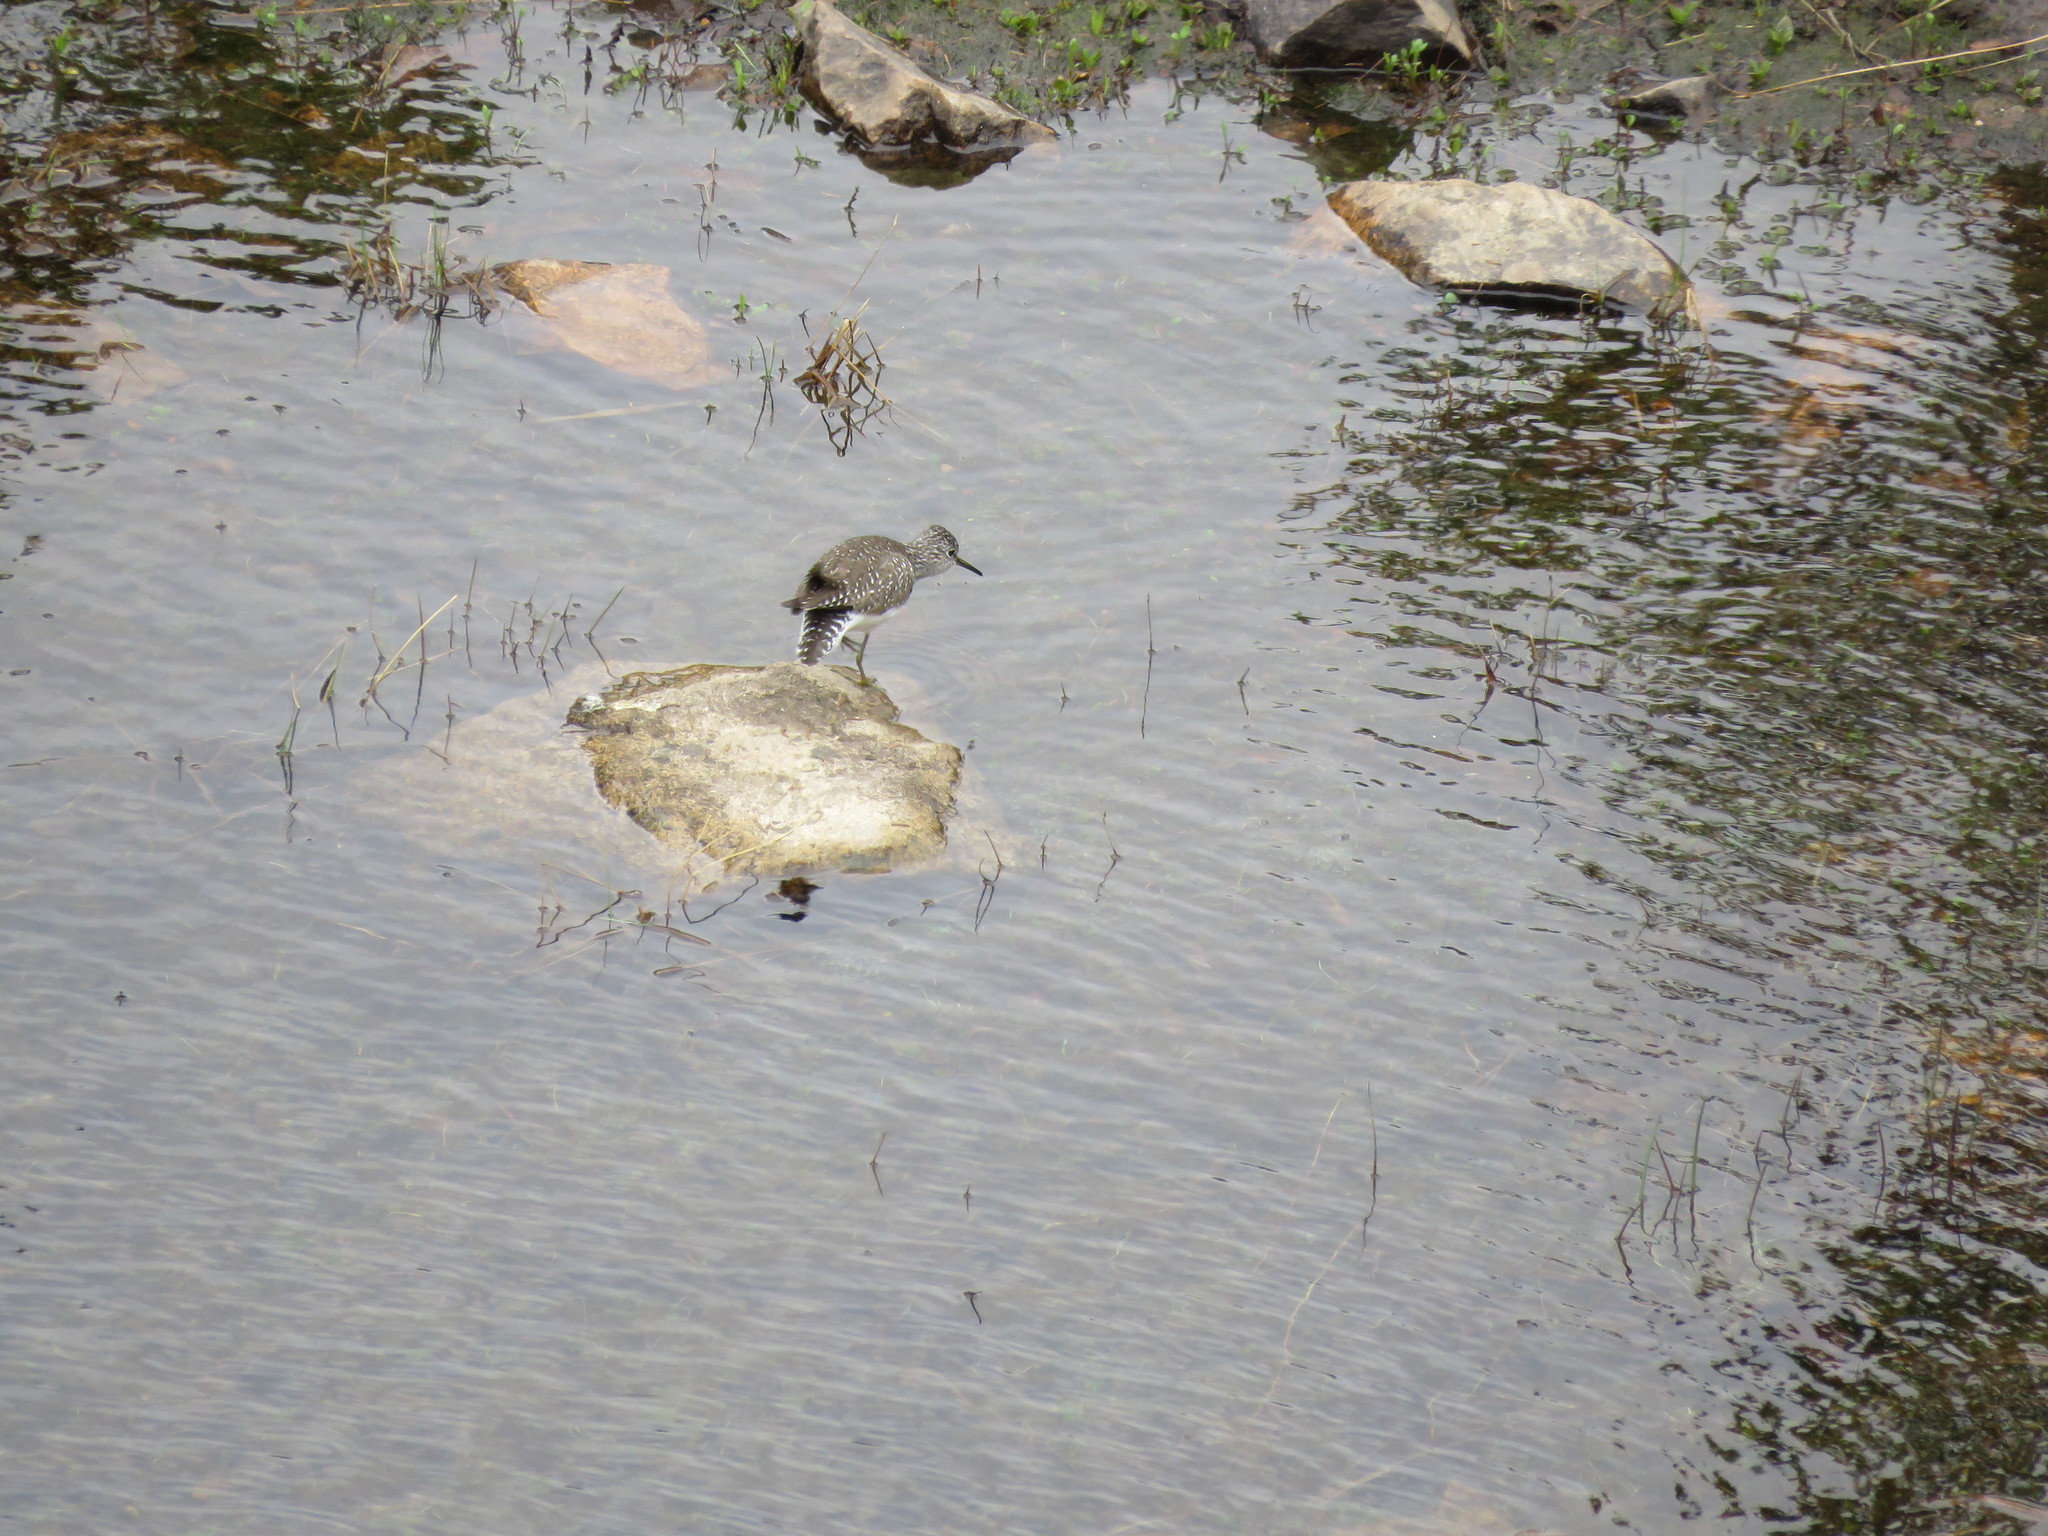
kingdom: Animalia
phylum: Chordata
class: Aves
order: Charadriiformes
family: Scolopacidae
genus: Tringa
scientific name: Tringa solitaria
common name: Solitary sandpiper
